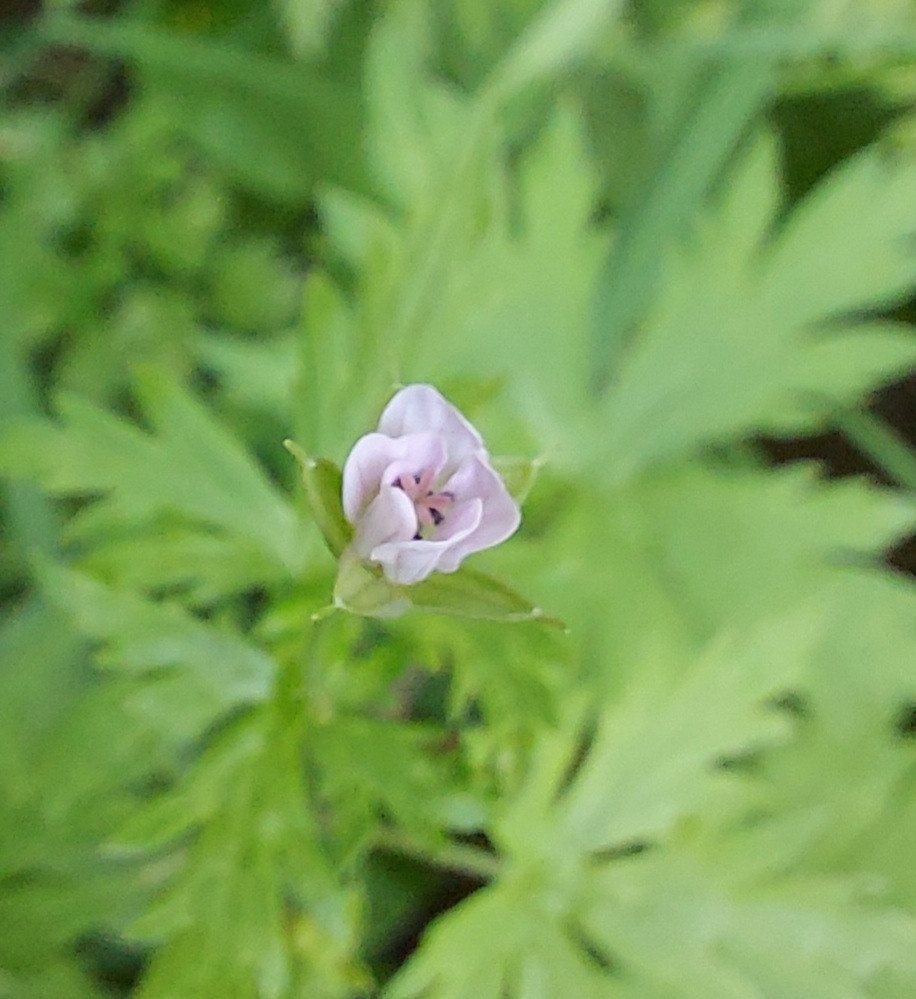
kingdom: Plantae
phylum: Tracheophyta
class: Magnoliopsida
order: Geraniales
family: Geraniaceae
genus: Geranium
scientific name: Geranium sibiricum
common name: Siberian crane's-bill
